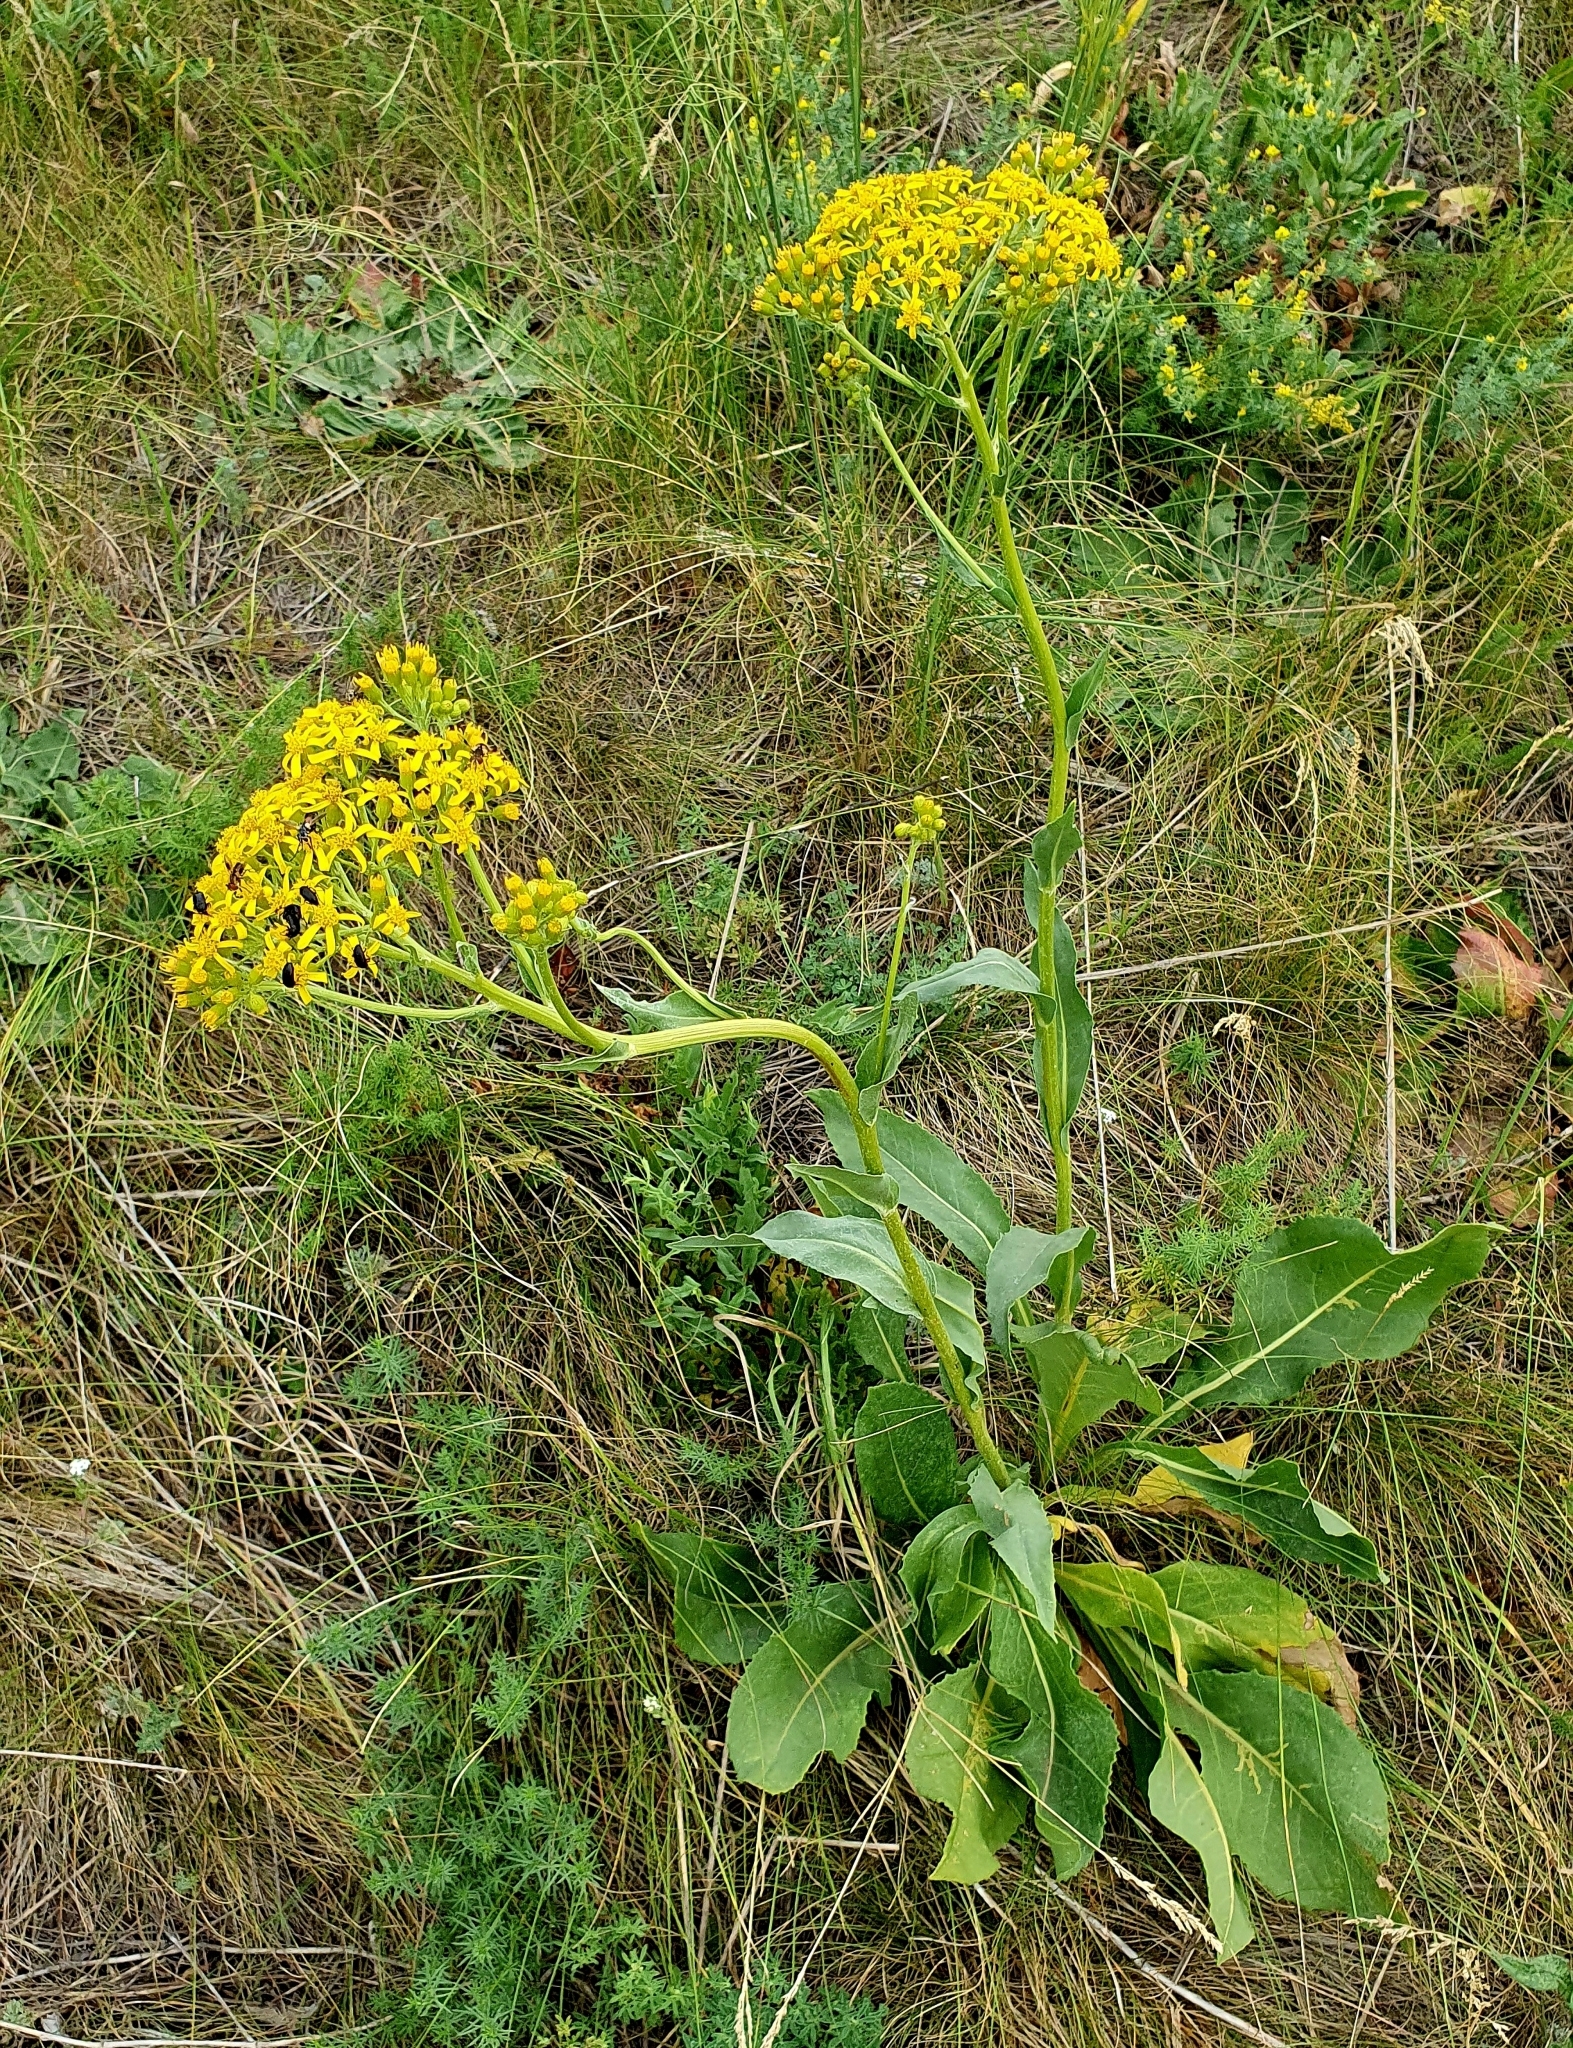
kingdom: Plantae
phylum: Tracheophyta
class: Magnoliopsida
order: Asterales
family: Asteraceae
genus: Senecio
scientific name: Senecio doria
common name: Golden ragwort
